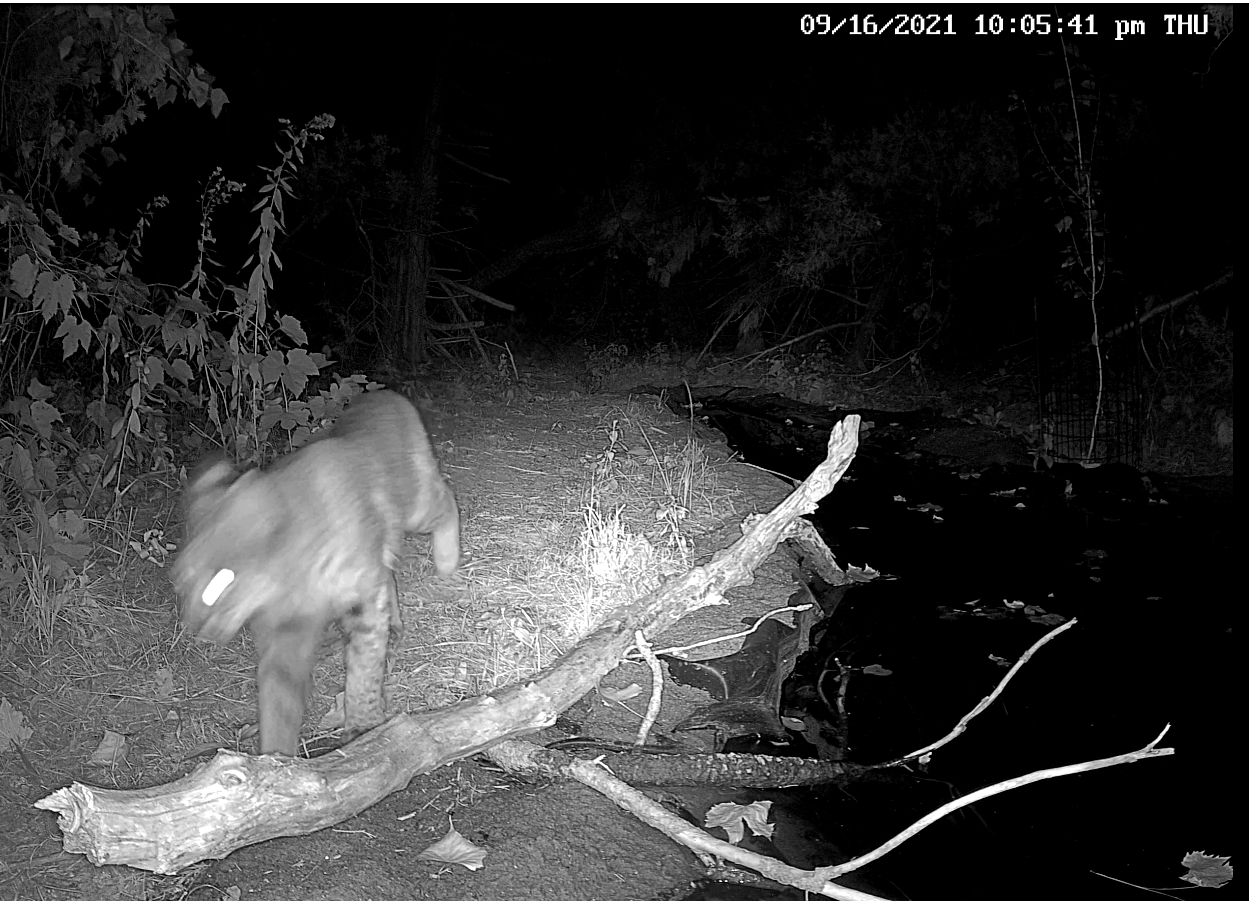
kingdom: Animalia
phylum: Chordata
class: Mammalia
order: Carnivora
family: Felidae
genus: Lynx
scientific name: Lynx rufus
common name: Bobcat
